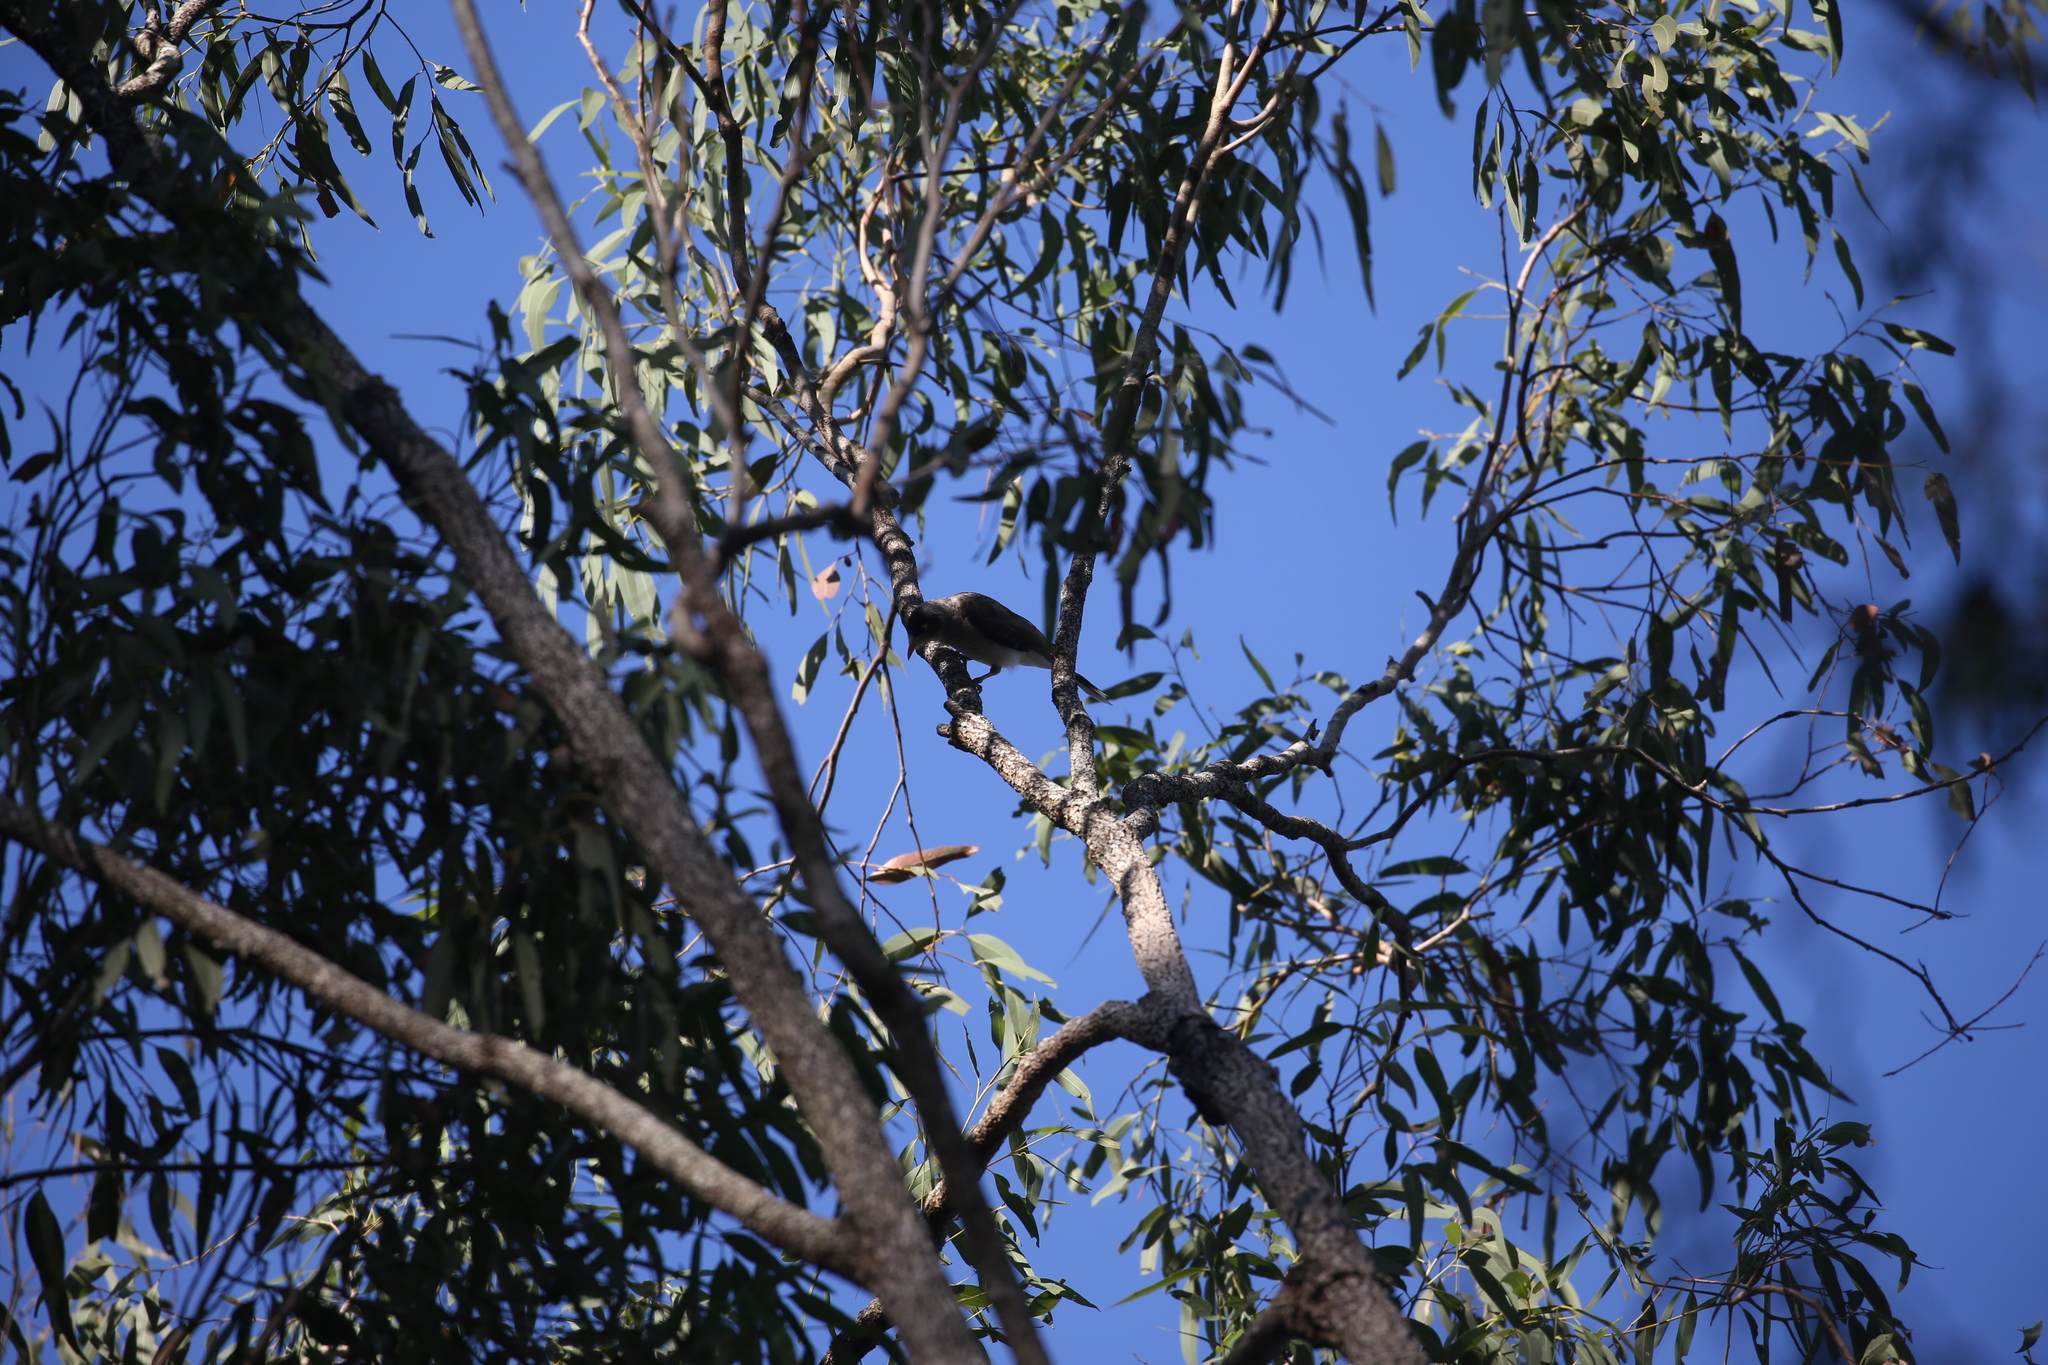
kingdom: Animalia
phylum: Chordata
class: Aves
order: Passeriformes
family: Meliphagidae
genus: Manorina
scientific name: Manorina melanocephala
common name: Noisy miner
